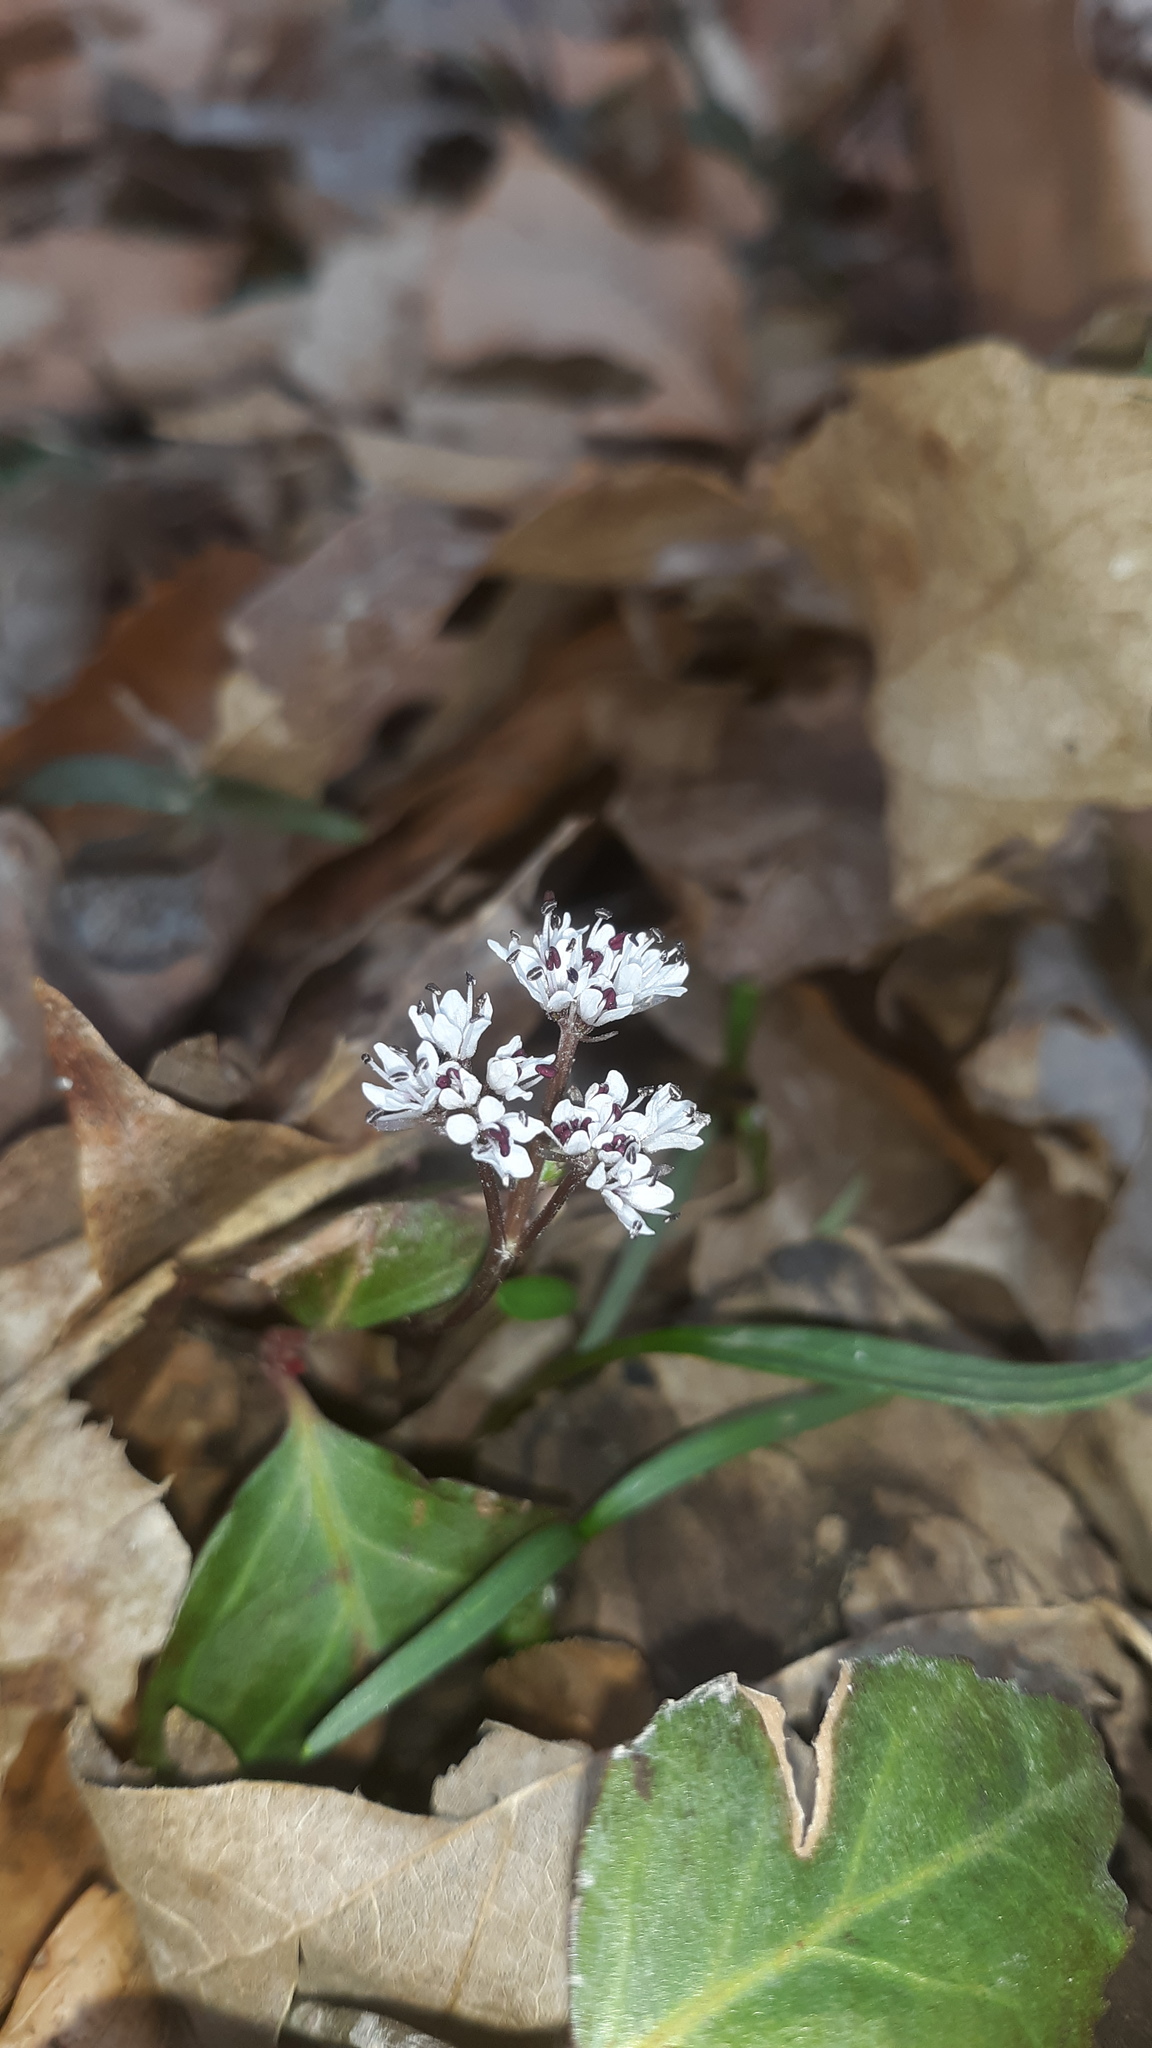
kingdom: Plantae
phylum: Tracheophyta
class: Magnoliopsida
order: Apiales
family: Apiaceae
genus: Erigenia
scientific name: Erigenia bulbosa
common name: Pepper-and-salt
